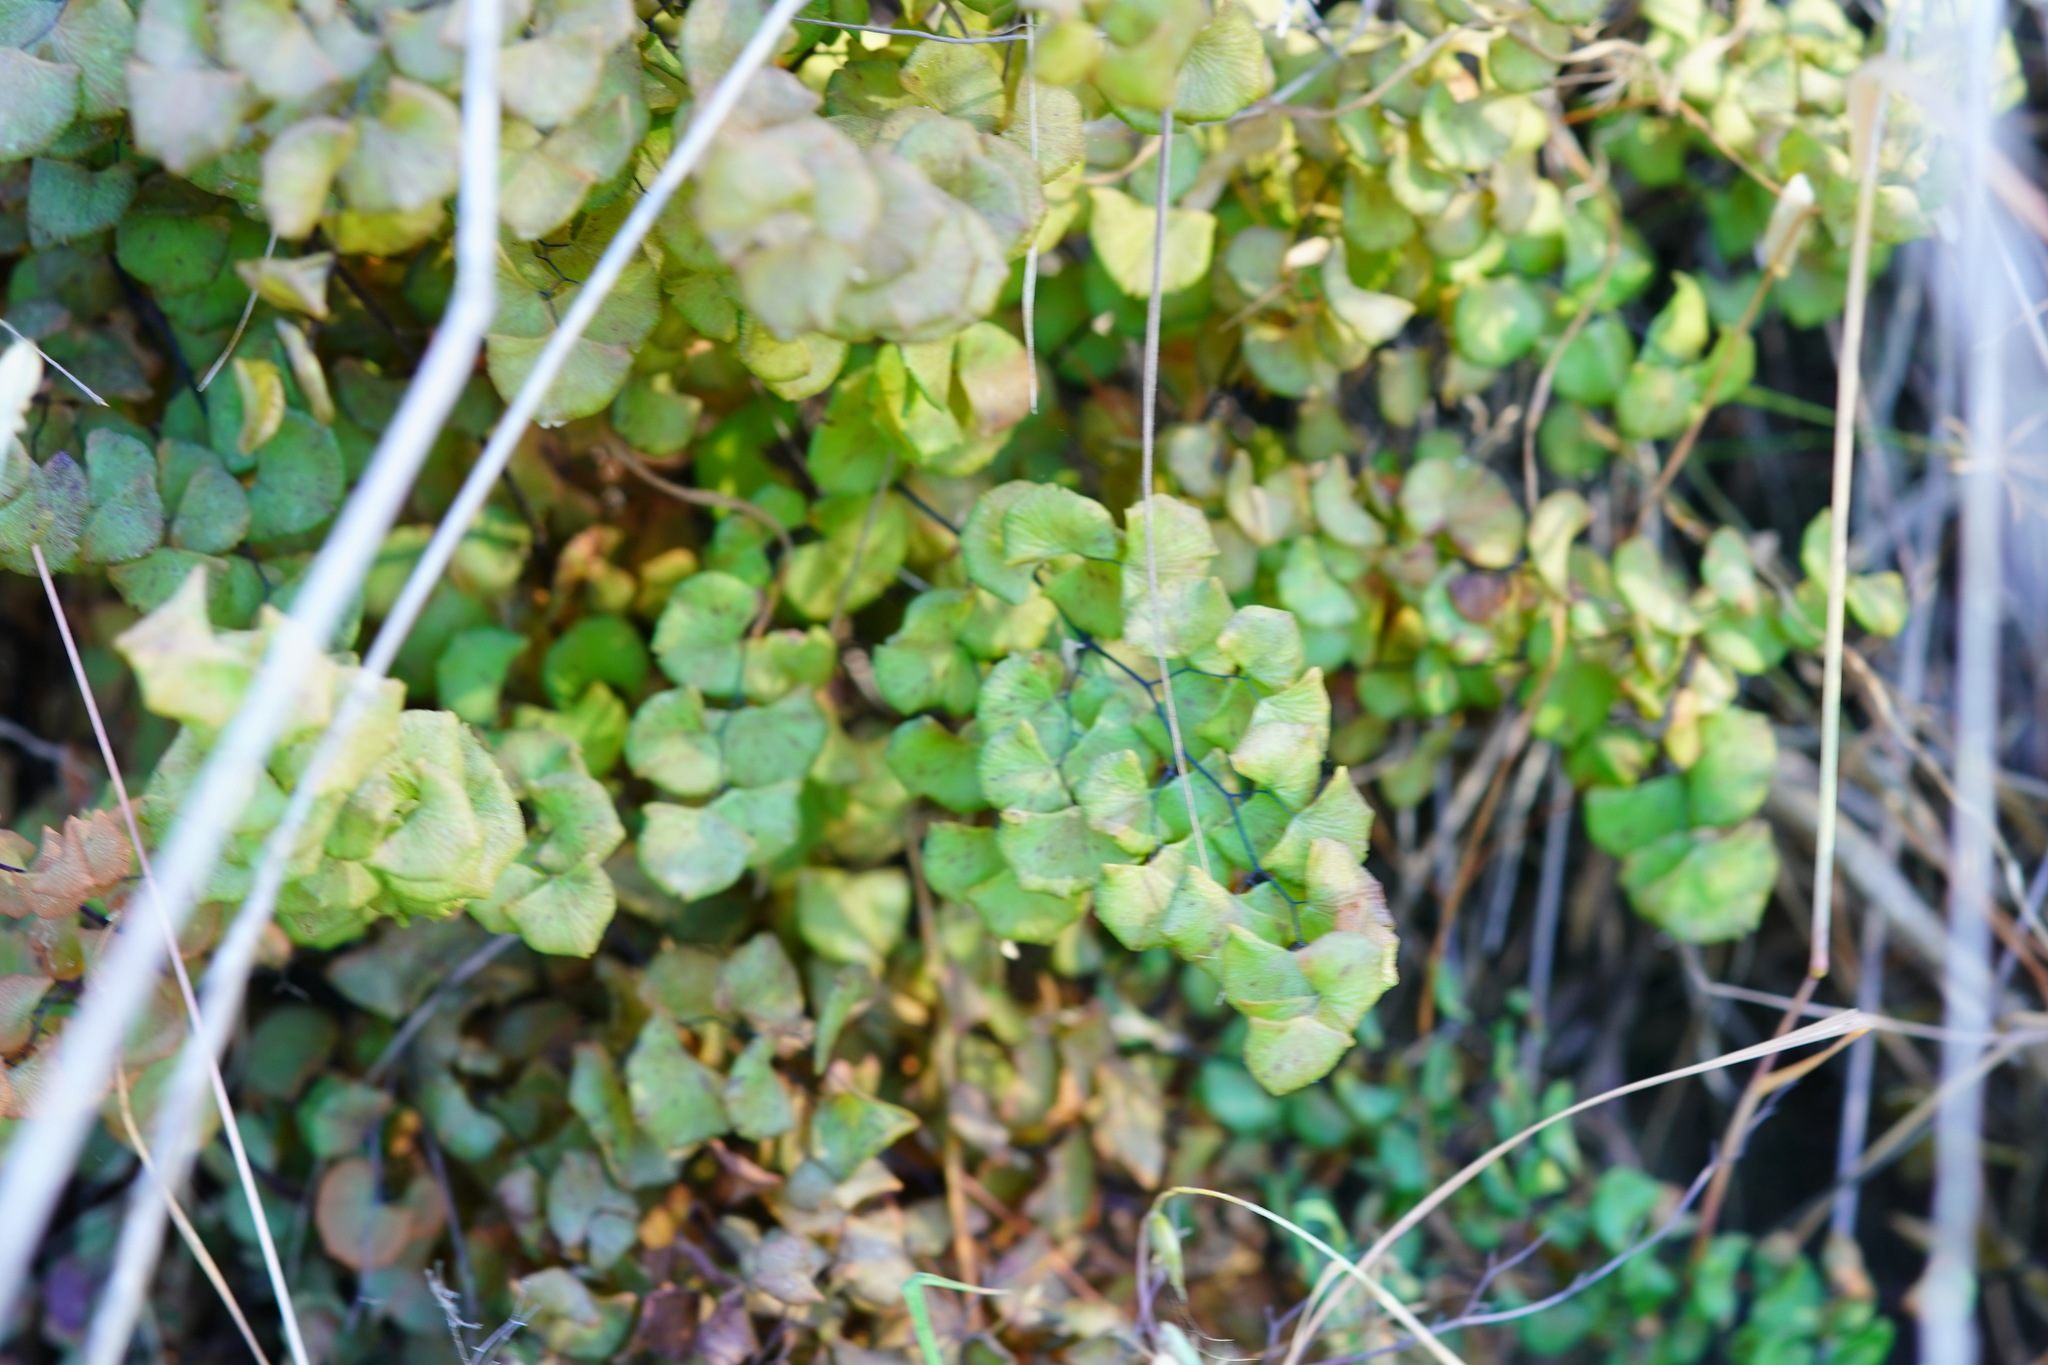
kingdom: Plantae
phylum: Tracheophyta
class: Polypodiopsida
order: Polypodiales
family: Pteridaceae
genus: Adiantum
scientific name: Adiantum jordanii
